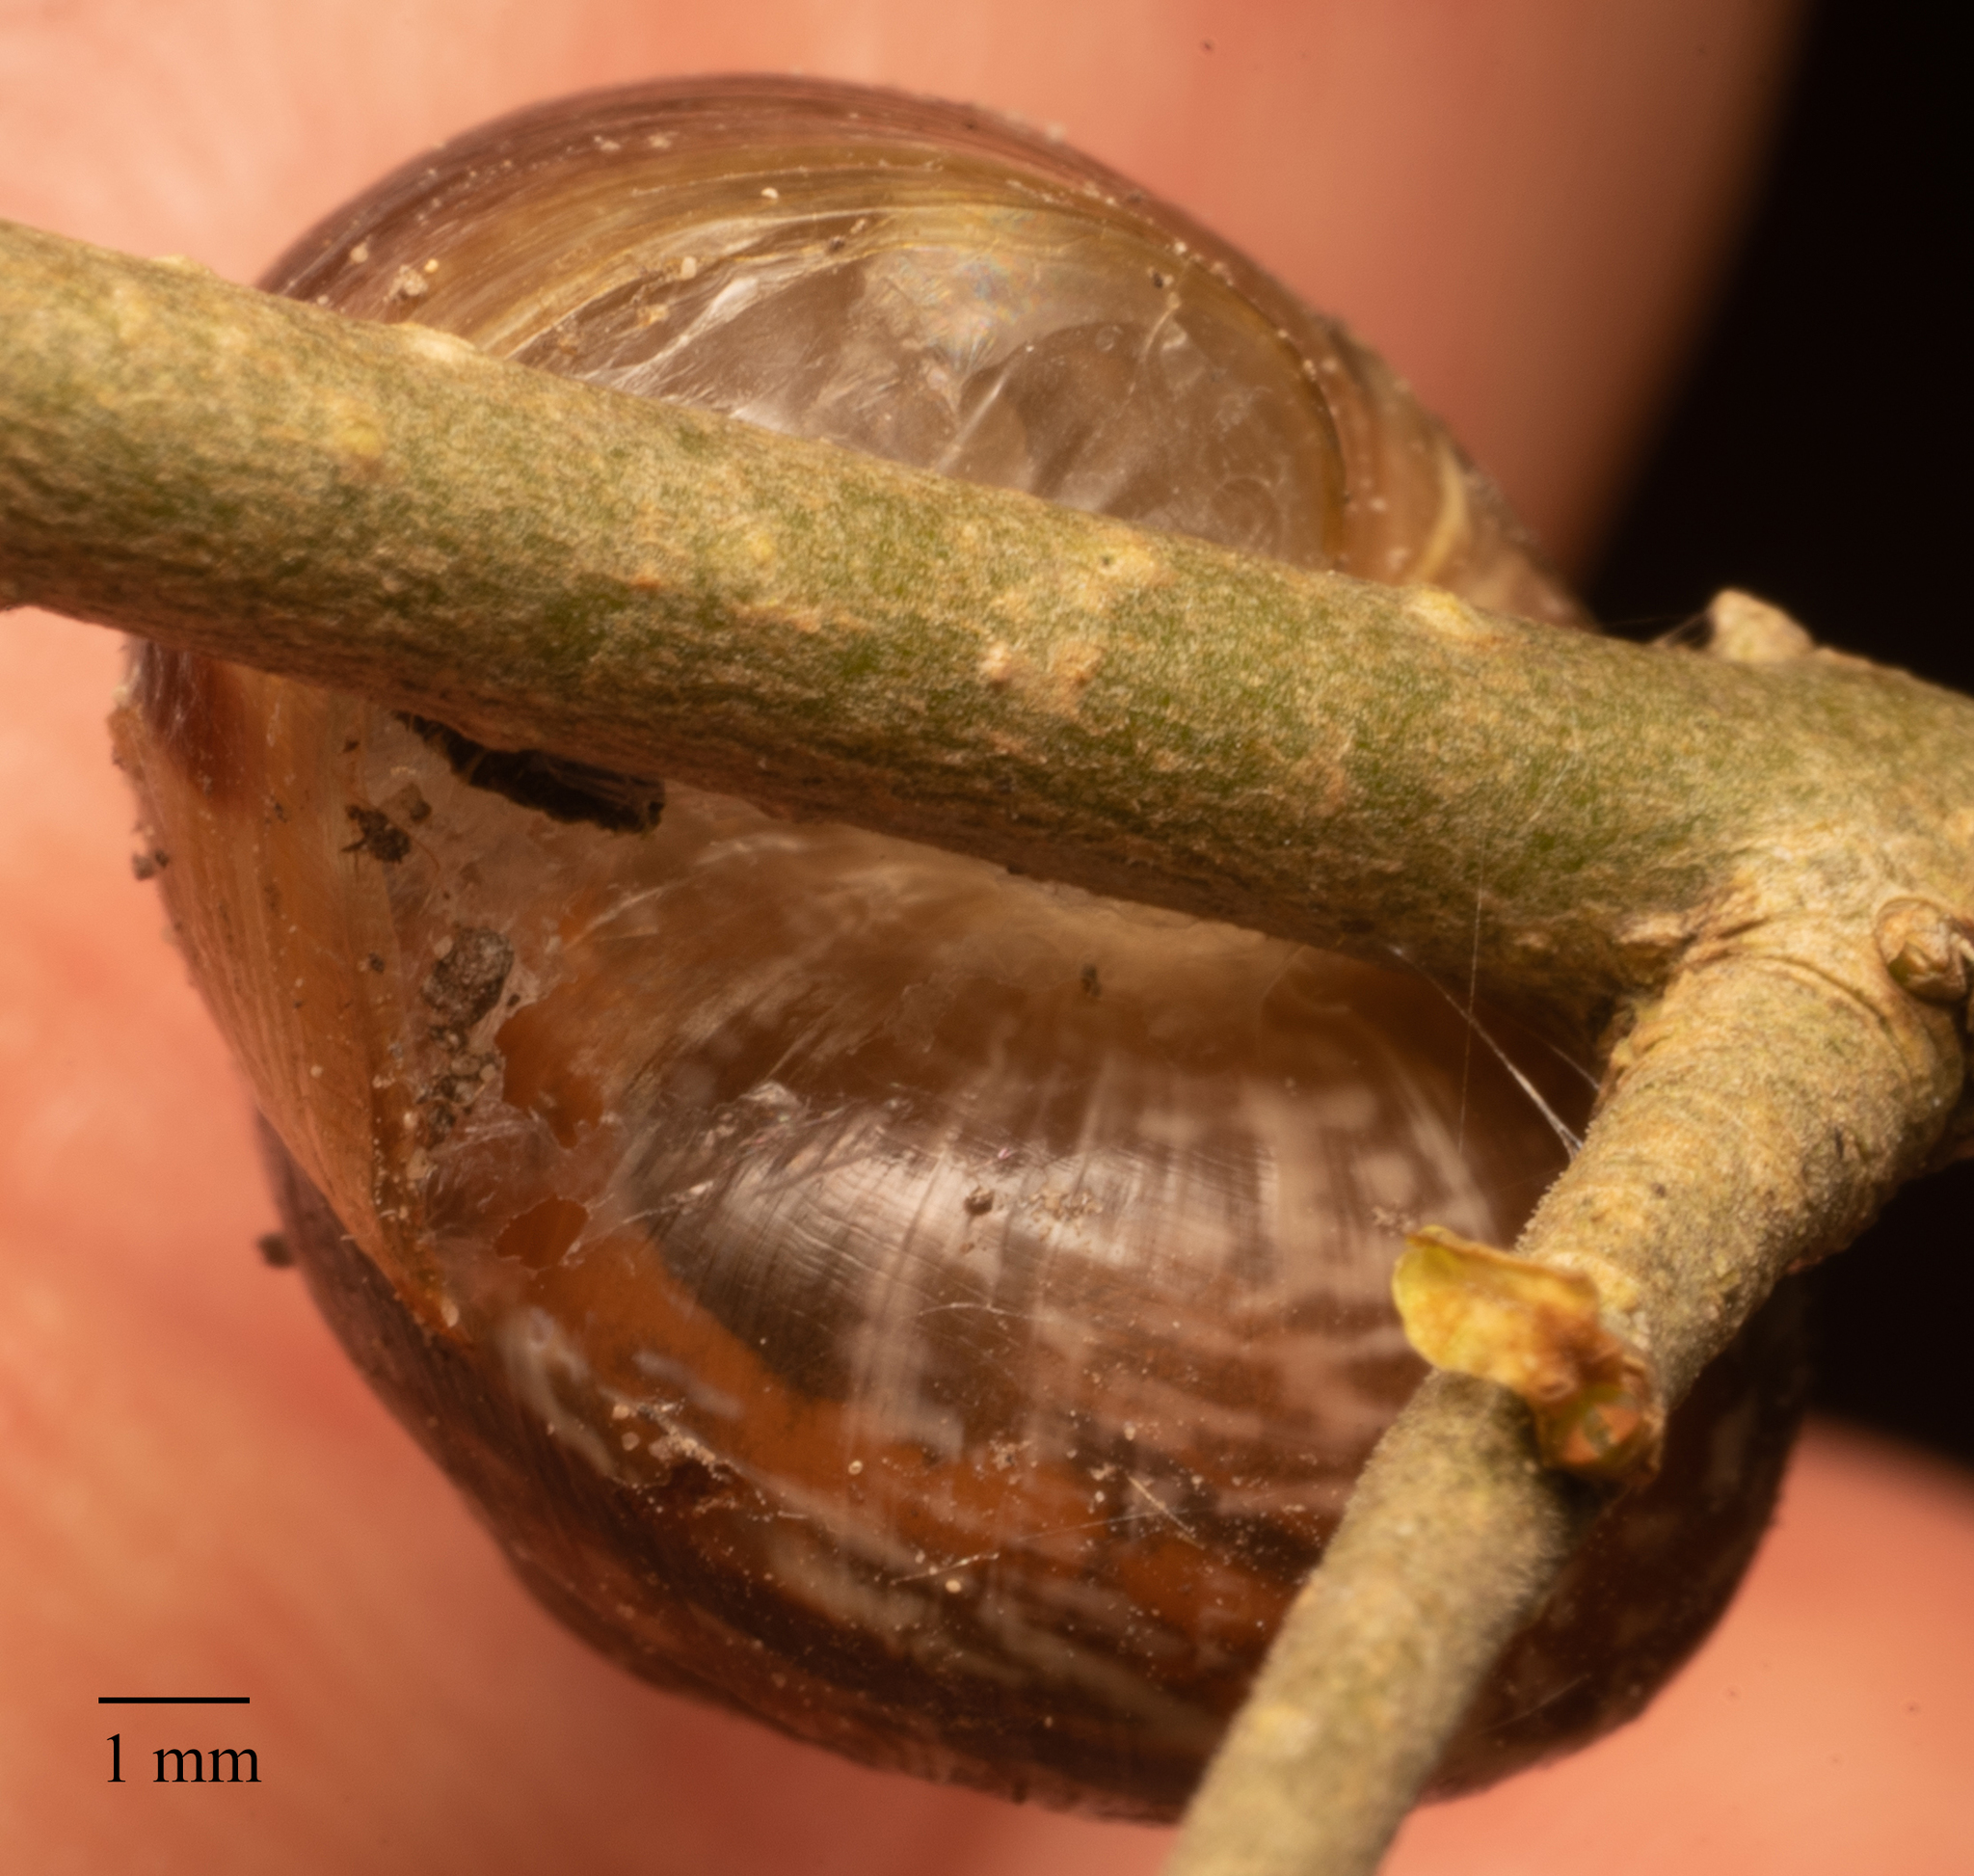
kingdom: Animalia
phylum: Mollusca
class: Gastropoda
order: Stylommatophora
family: Helicidae
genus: Arianta
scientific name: Arianta arbustorum
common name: Copse snail
